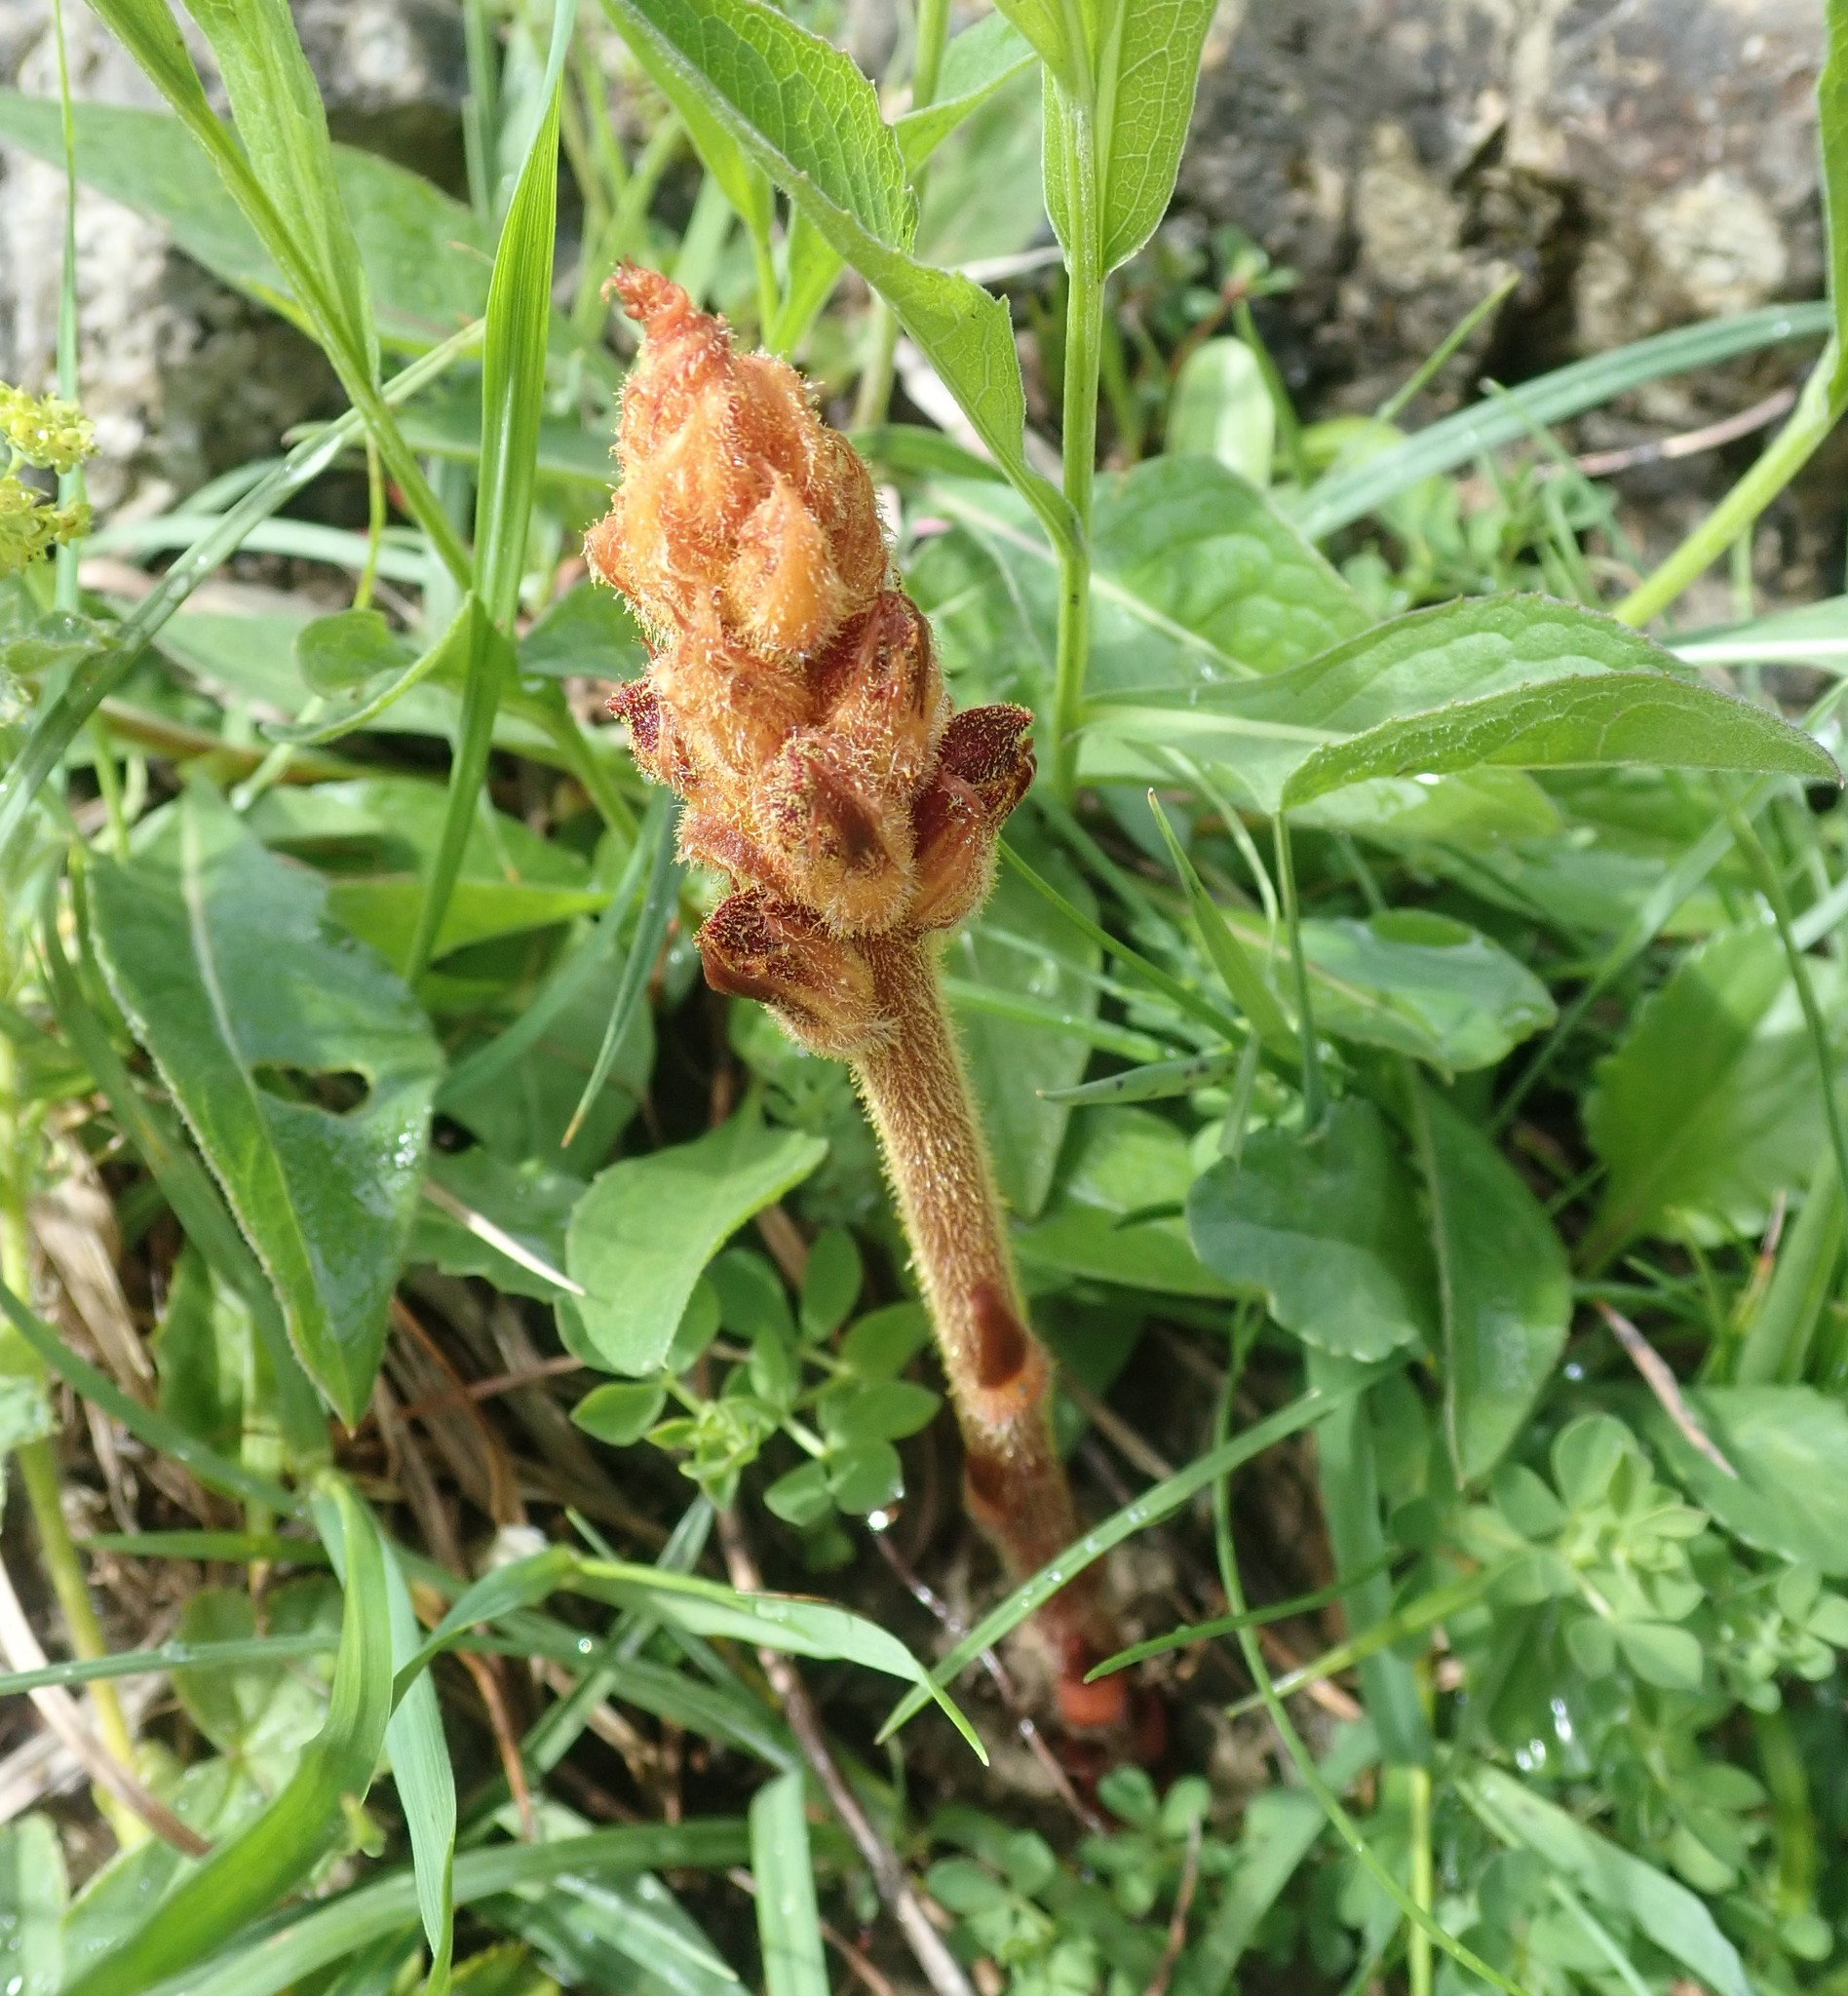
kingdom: Plantae
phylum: Tracheophyta
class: Magnoliopsida
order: Lamiales
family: Orobanchaceae
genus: Orobanche
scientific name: Orobanche gracilis
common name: Slender broomrape
